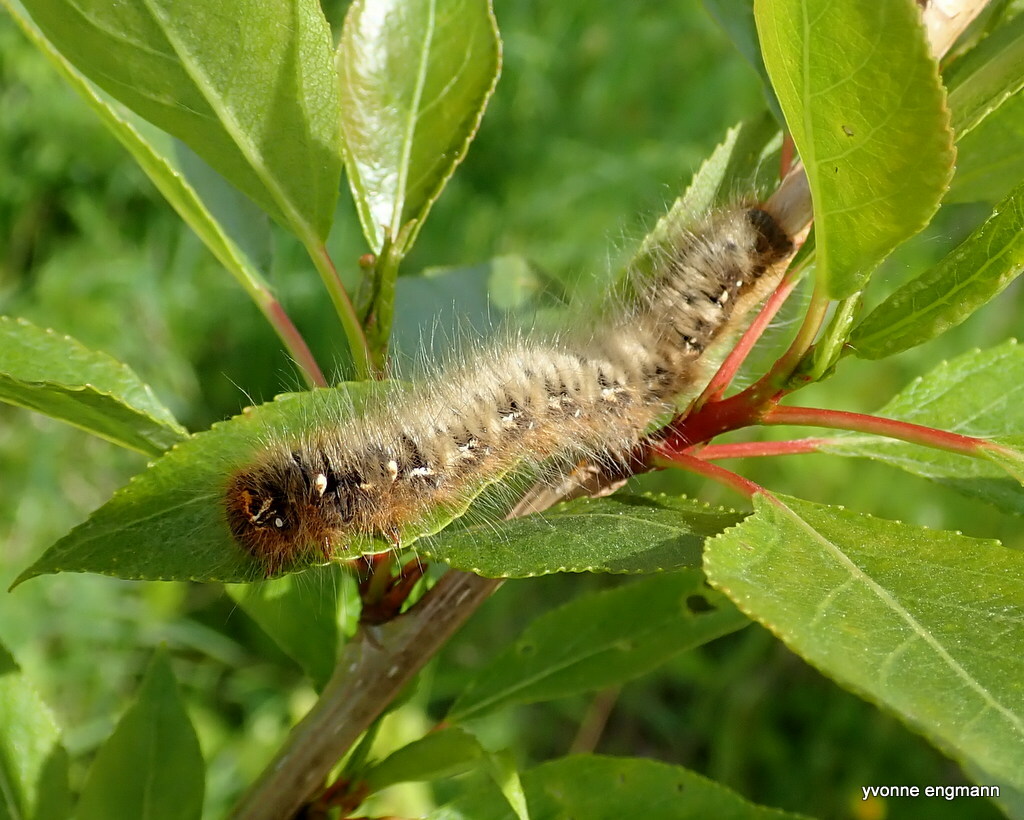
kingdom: Animalia
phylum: Arthropoda
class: Insecta
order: Lepidoptera
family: Lasiocampidae
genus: Lasiocampa
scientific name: Lasiocampa quercus
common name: Oak eggar
